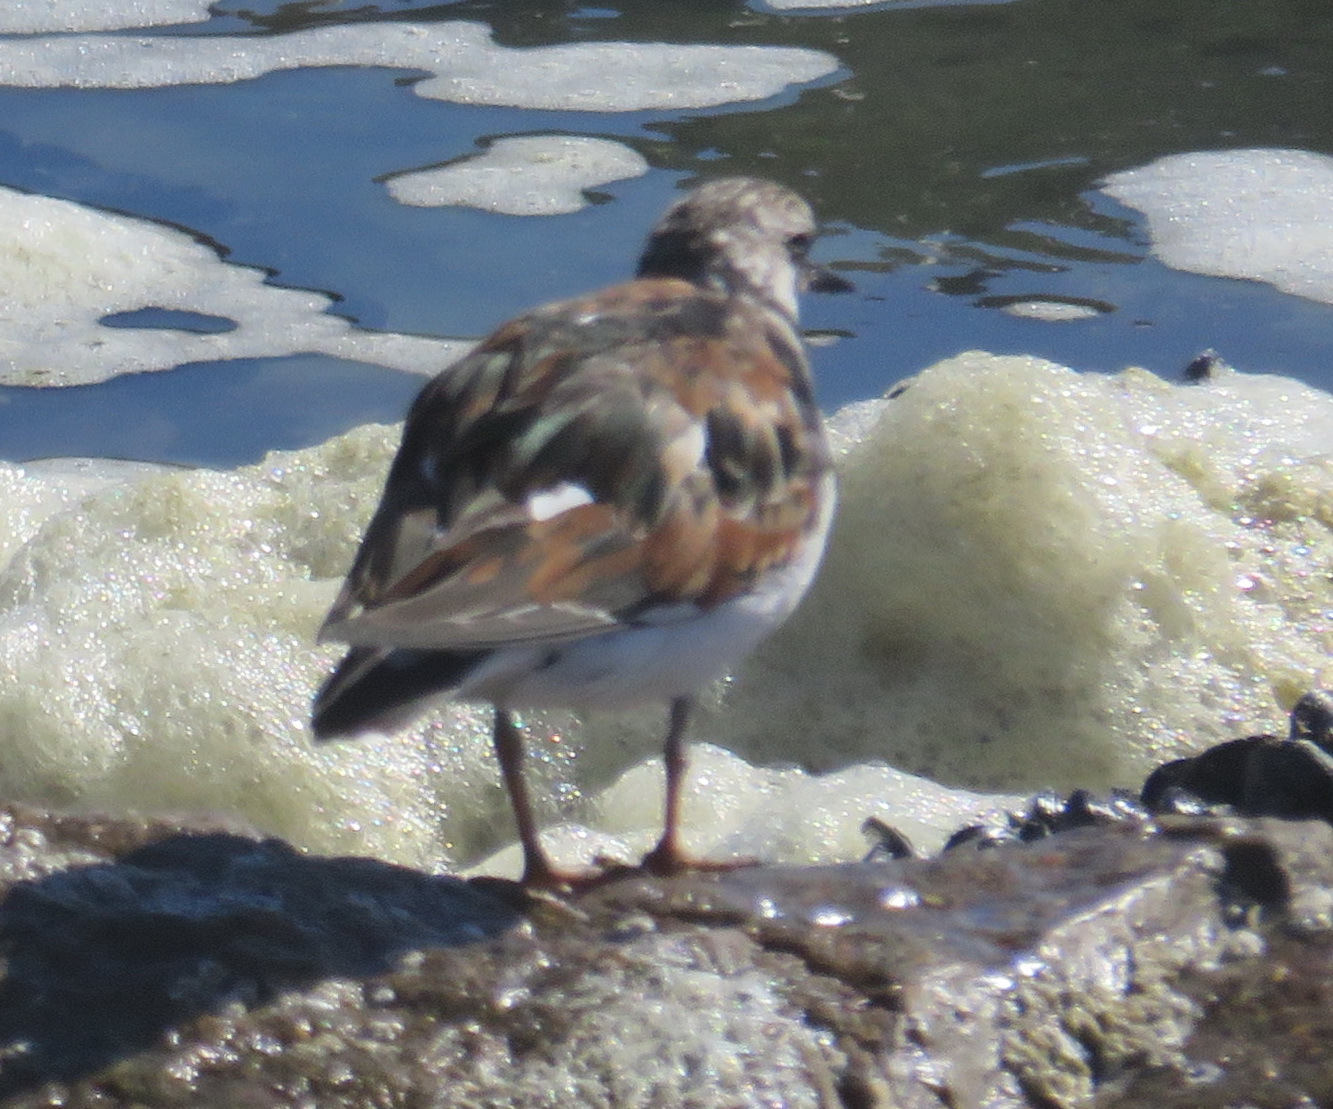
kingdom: Animalia
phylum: Chordata
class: Aves
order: Charadriiformes
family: Scolopacidae
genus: Arenaria
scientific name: Arenaria interpres
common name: Ruddy turnstone
